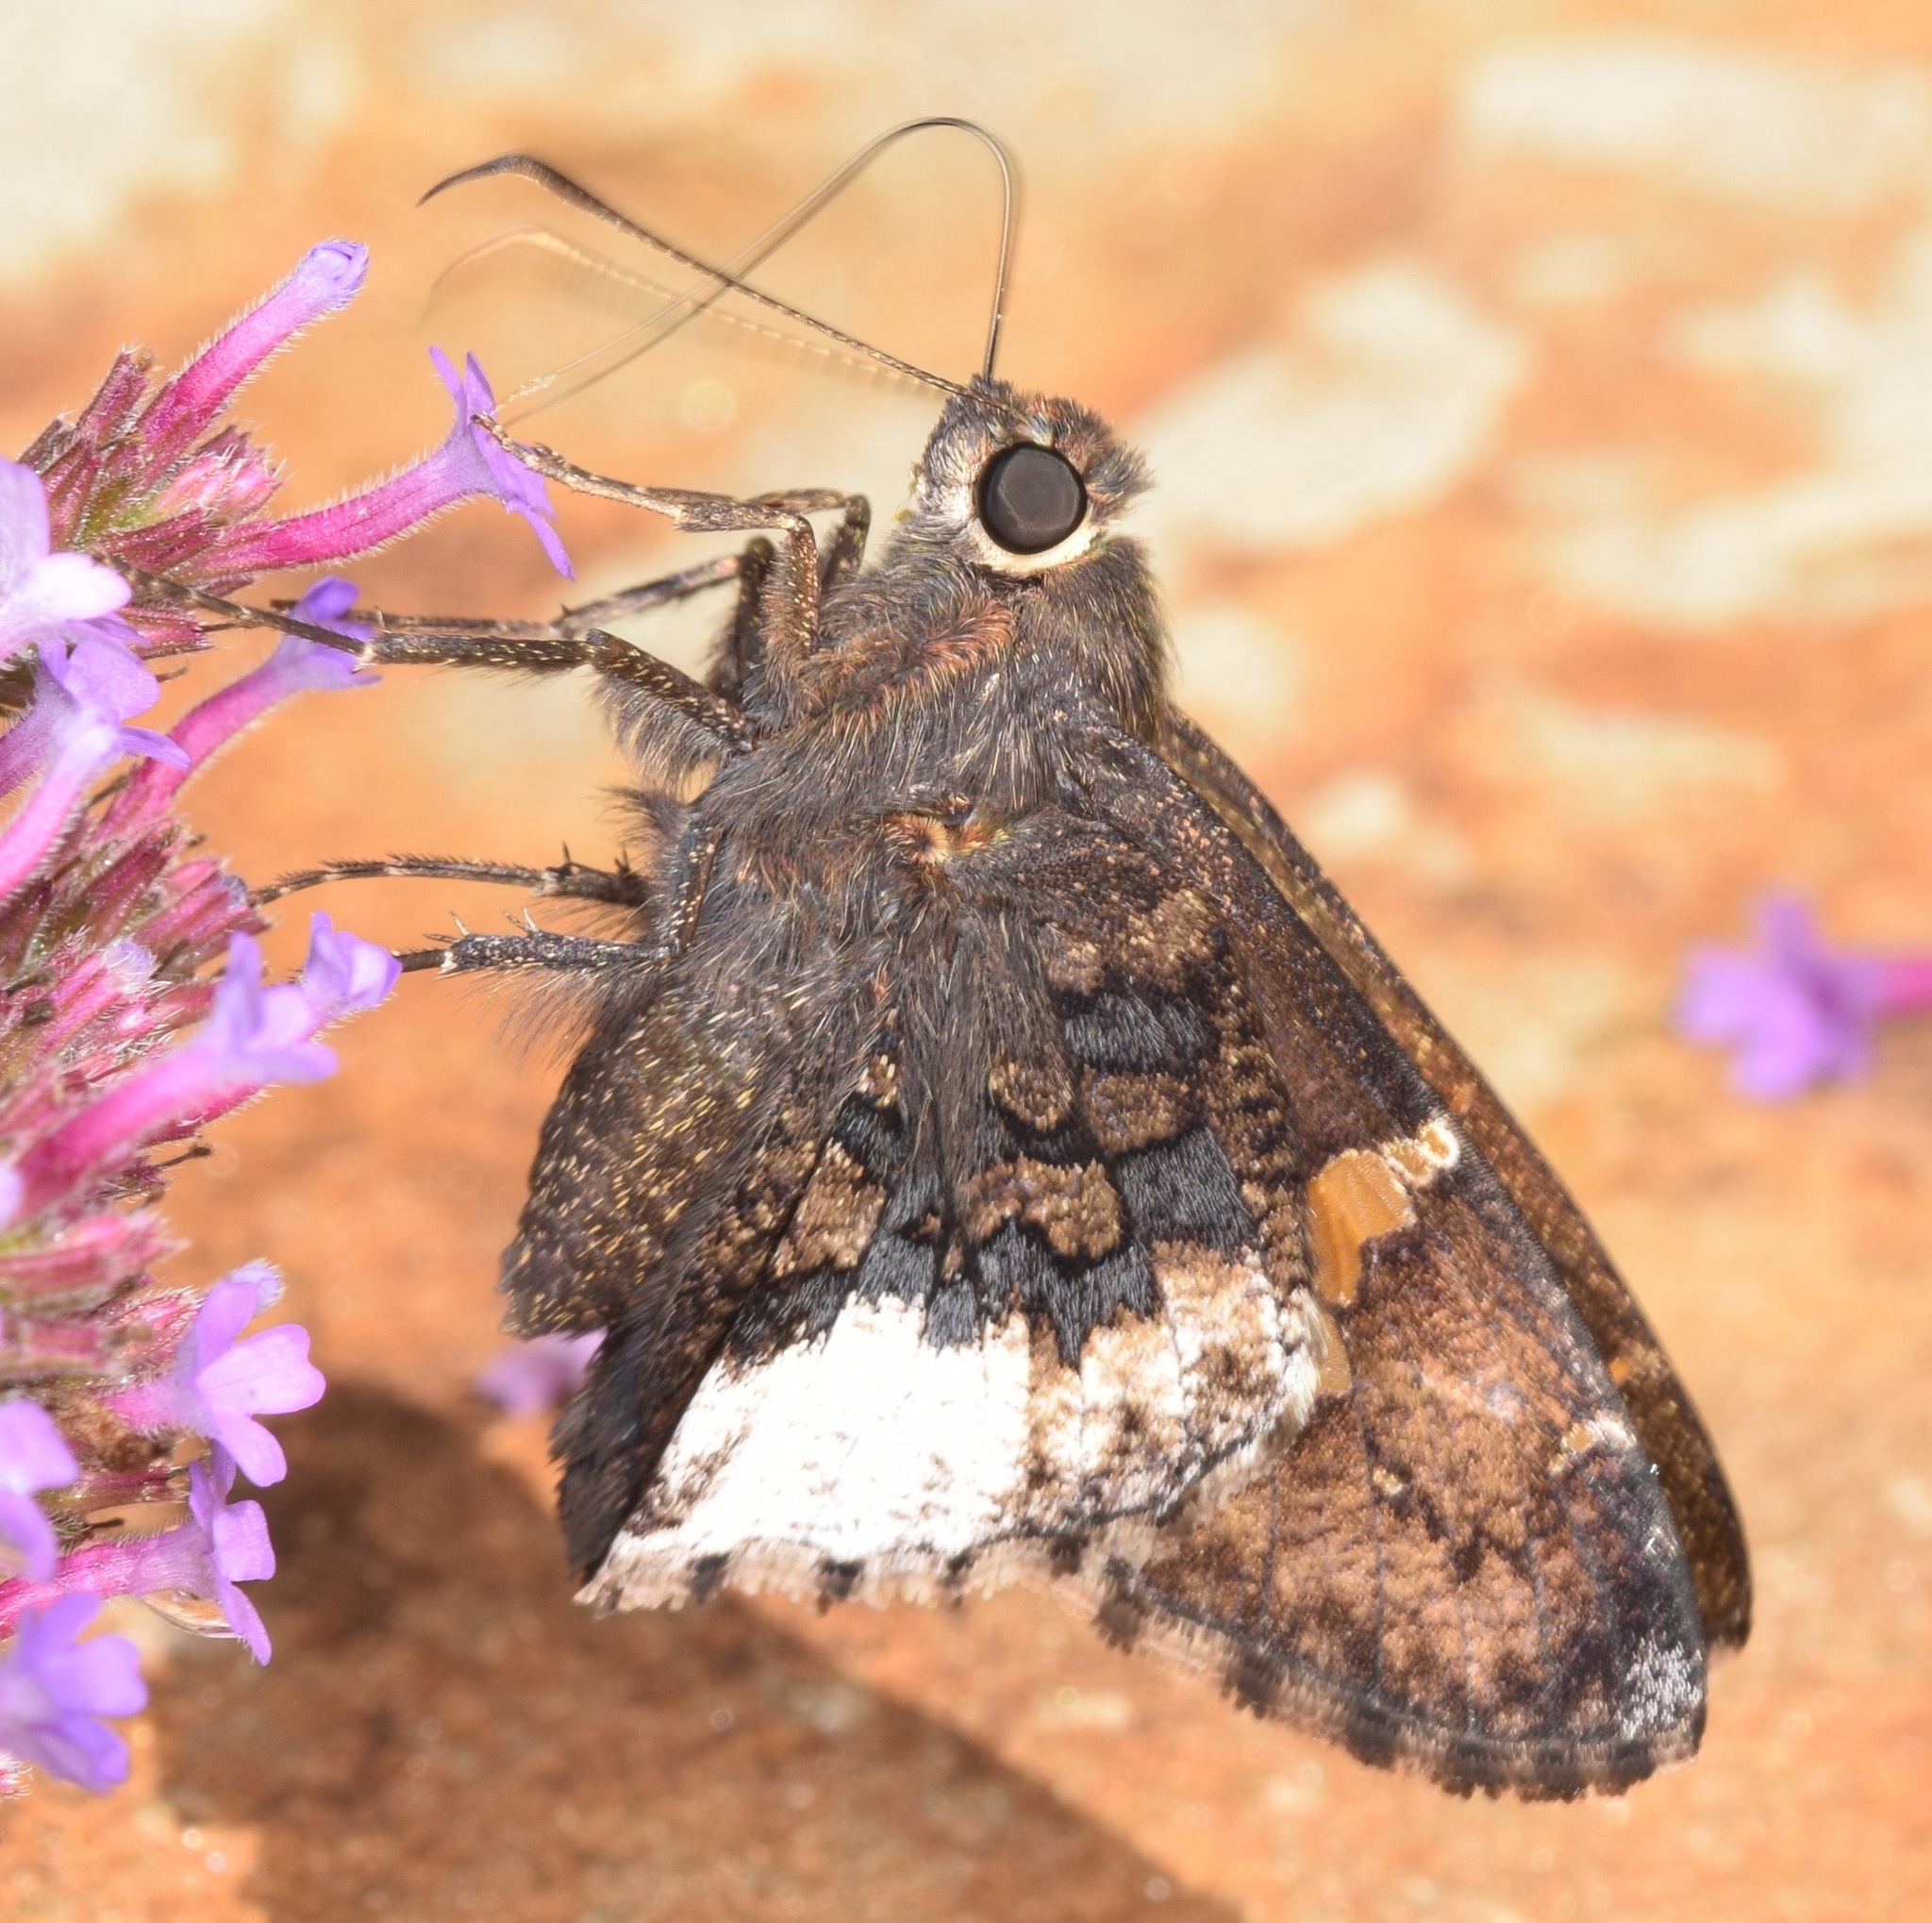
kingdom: Animalia
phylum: Arthropoda
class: Insecta
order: Lepidoptera
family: Hesperiidae
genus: Thorybes
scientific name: Thorybes lyciades
